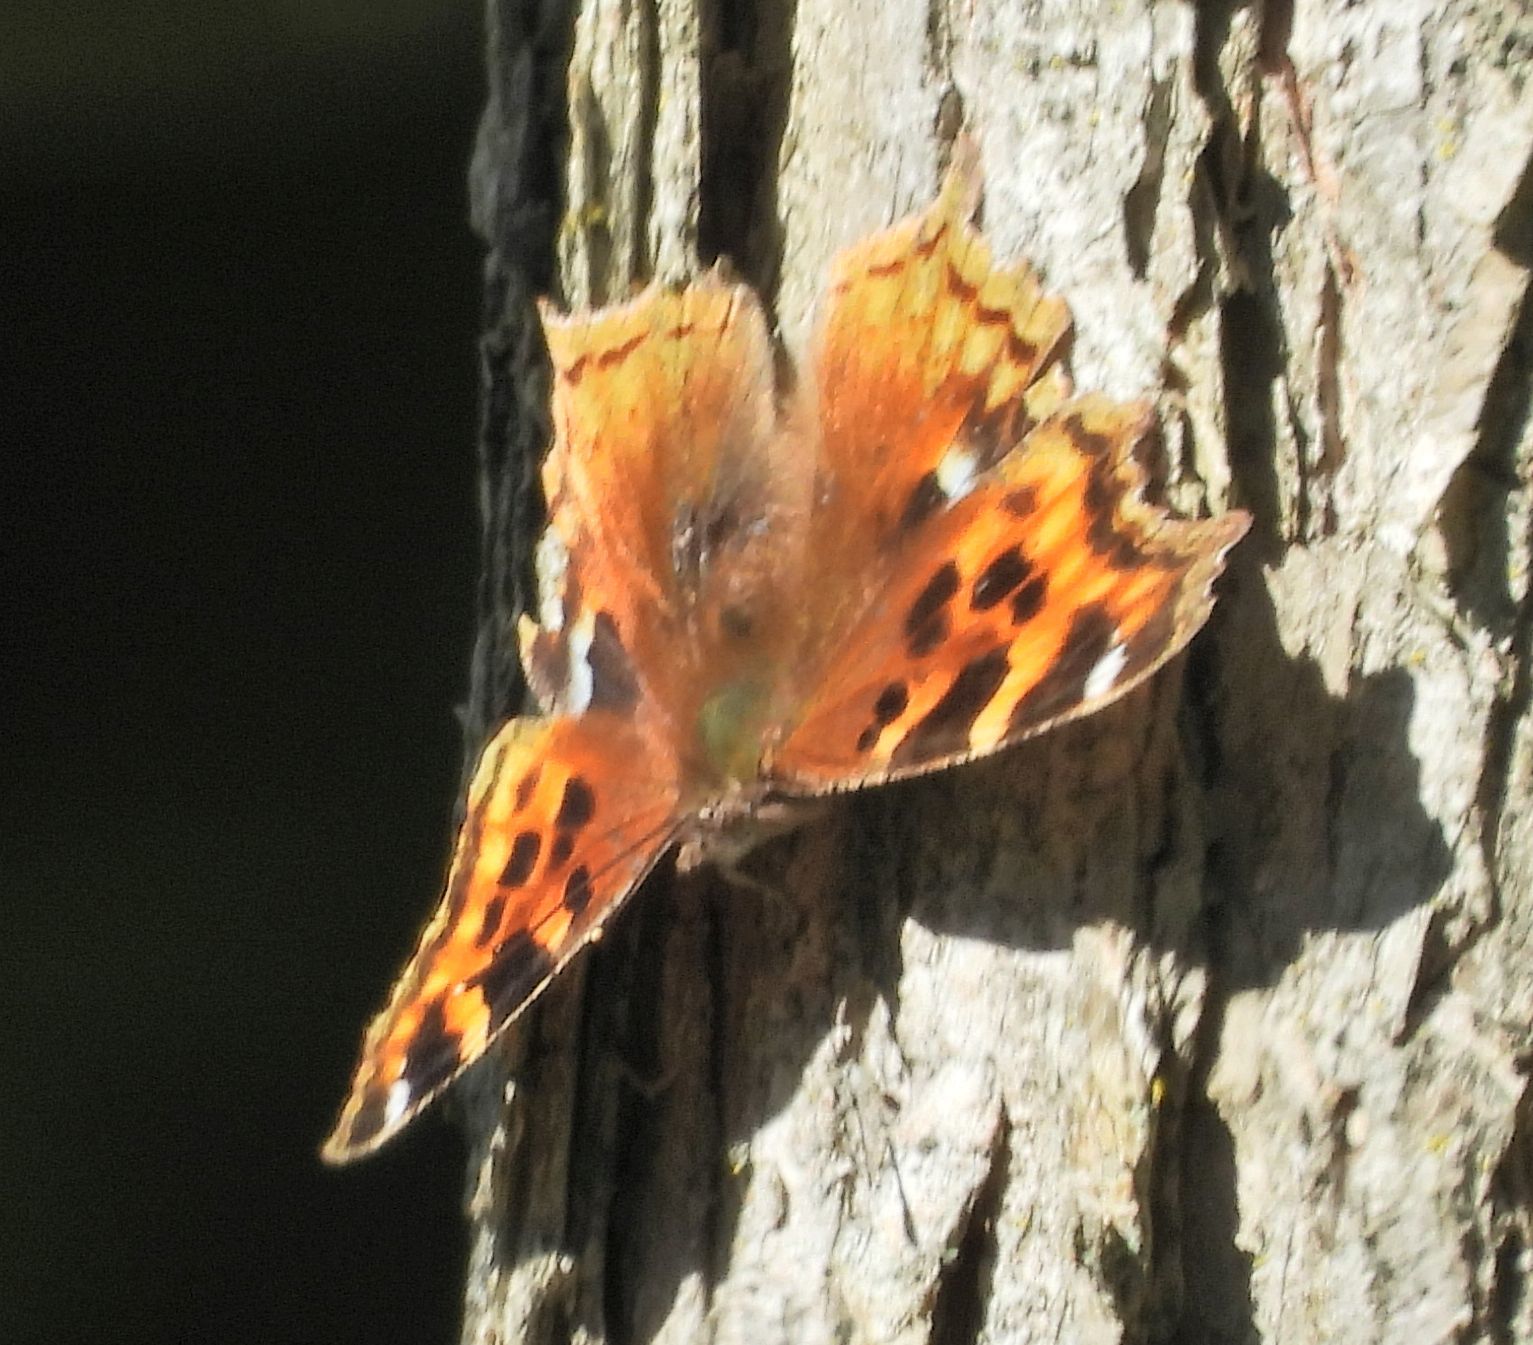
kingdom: Animalia
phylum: Arthropoda
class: Insecta
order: Lepidoptera
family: Nymphalidae
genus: Polygonia
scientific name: Polygonia vaualbum
